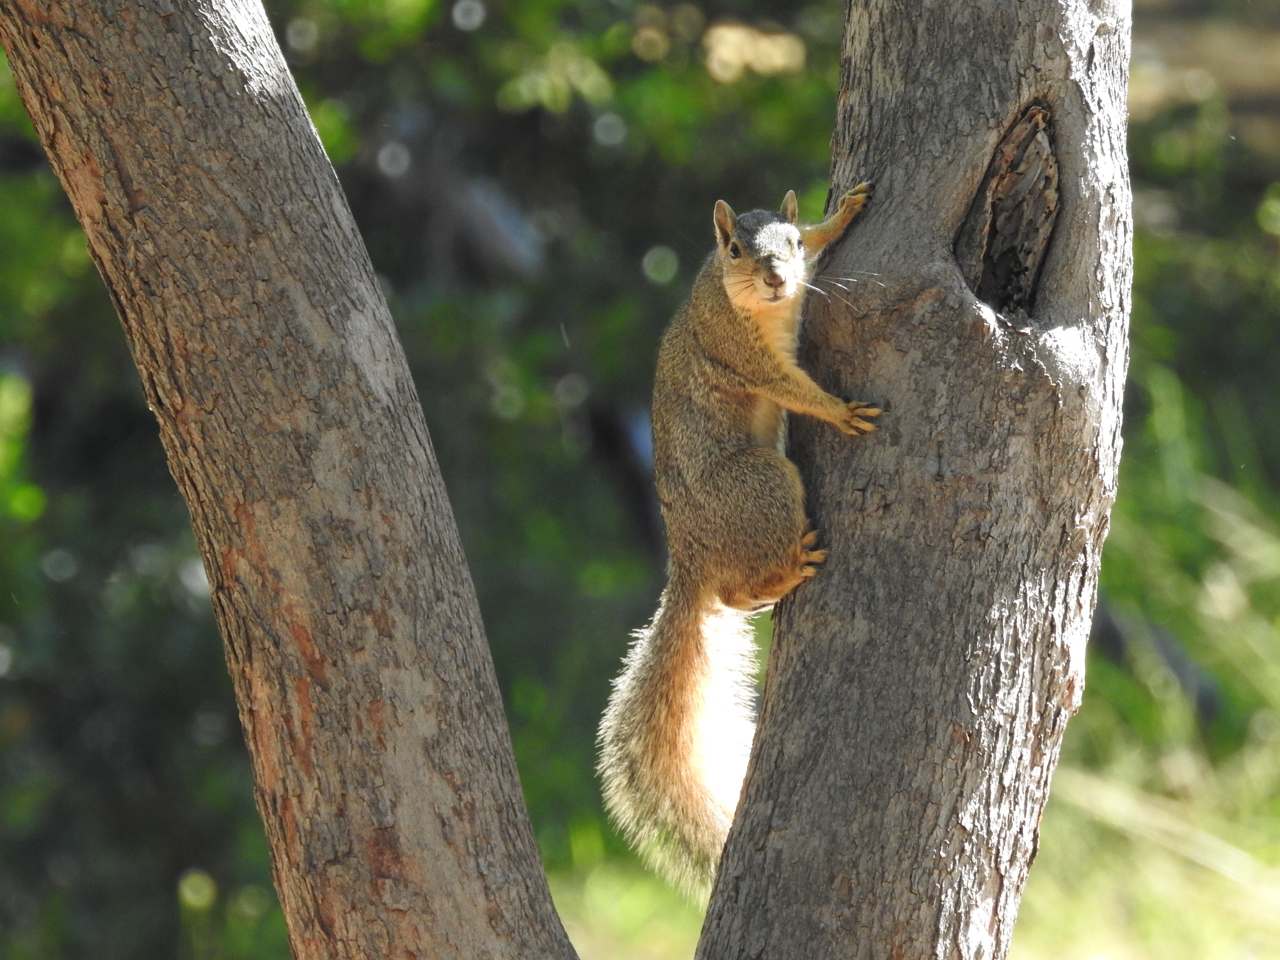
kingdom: Animalia
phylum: Chordata
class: Mammalia
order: Rodentia
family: Sciuridae
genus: Sciurus
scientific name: Sciurus niger
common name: Fox squirrel
